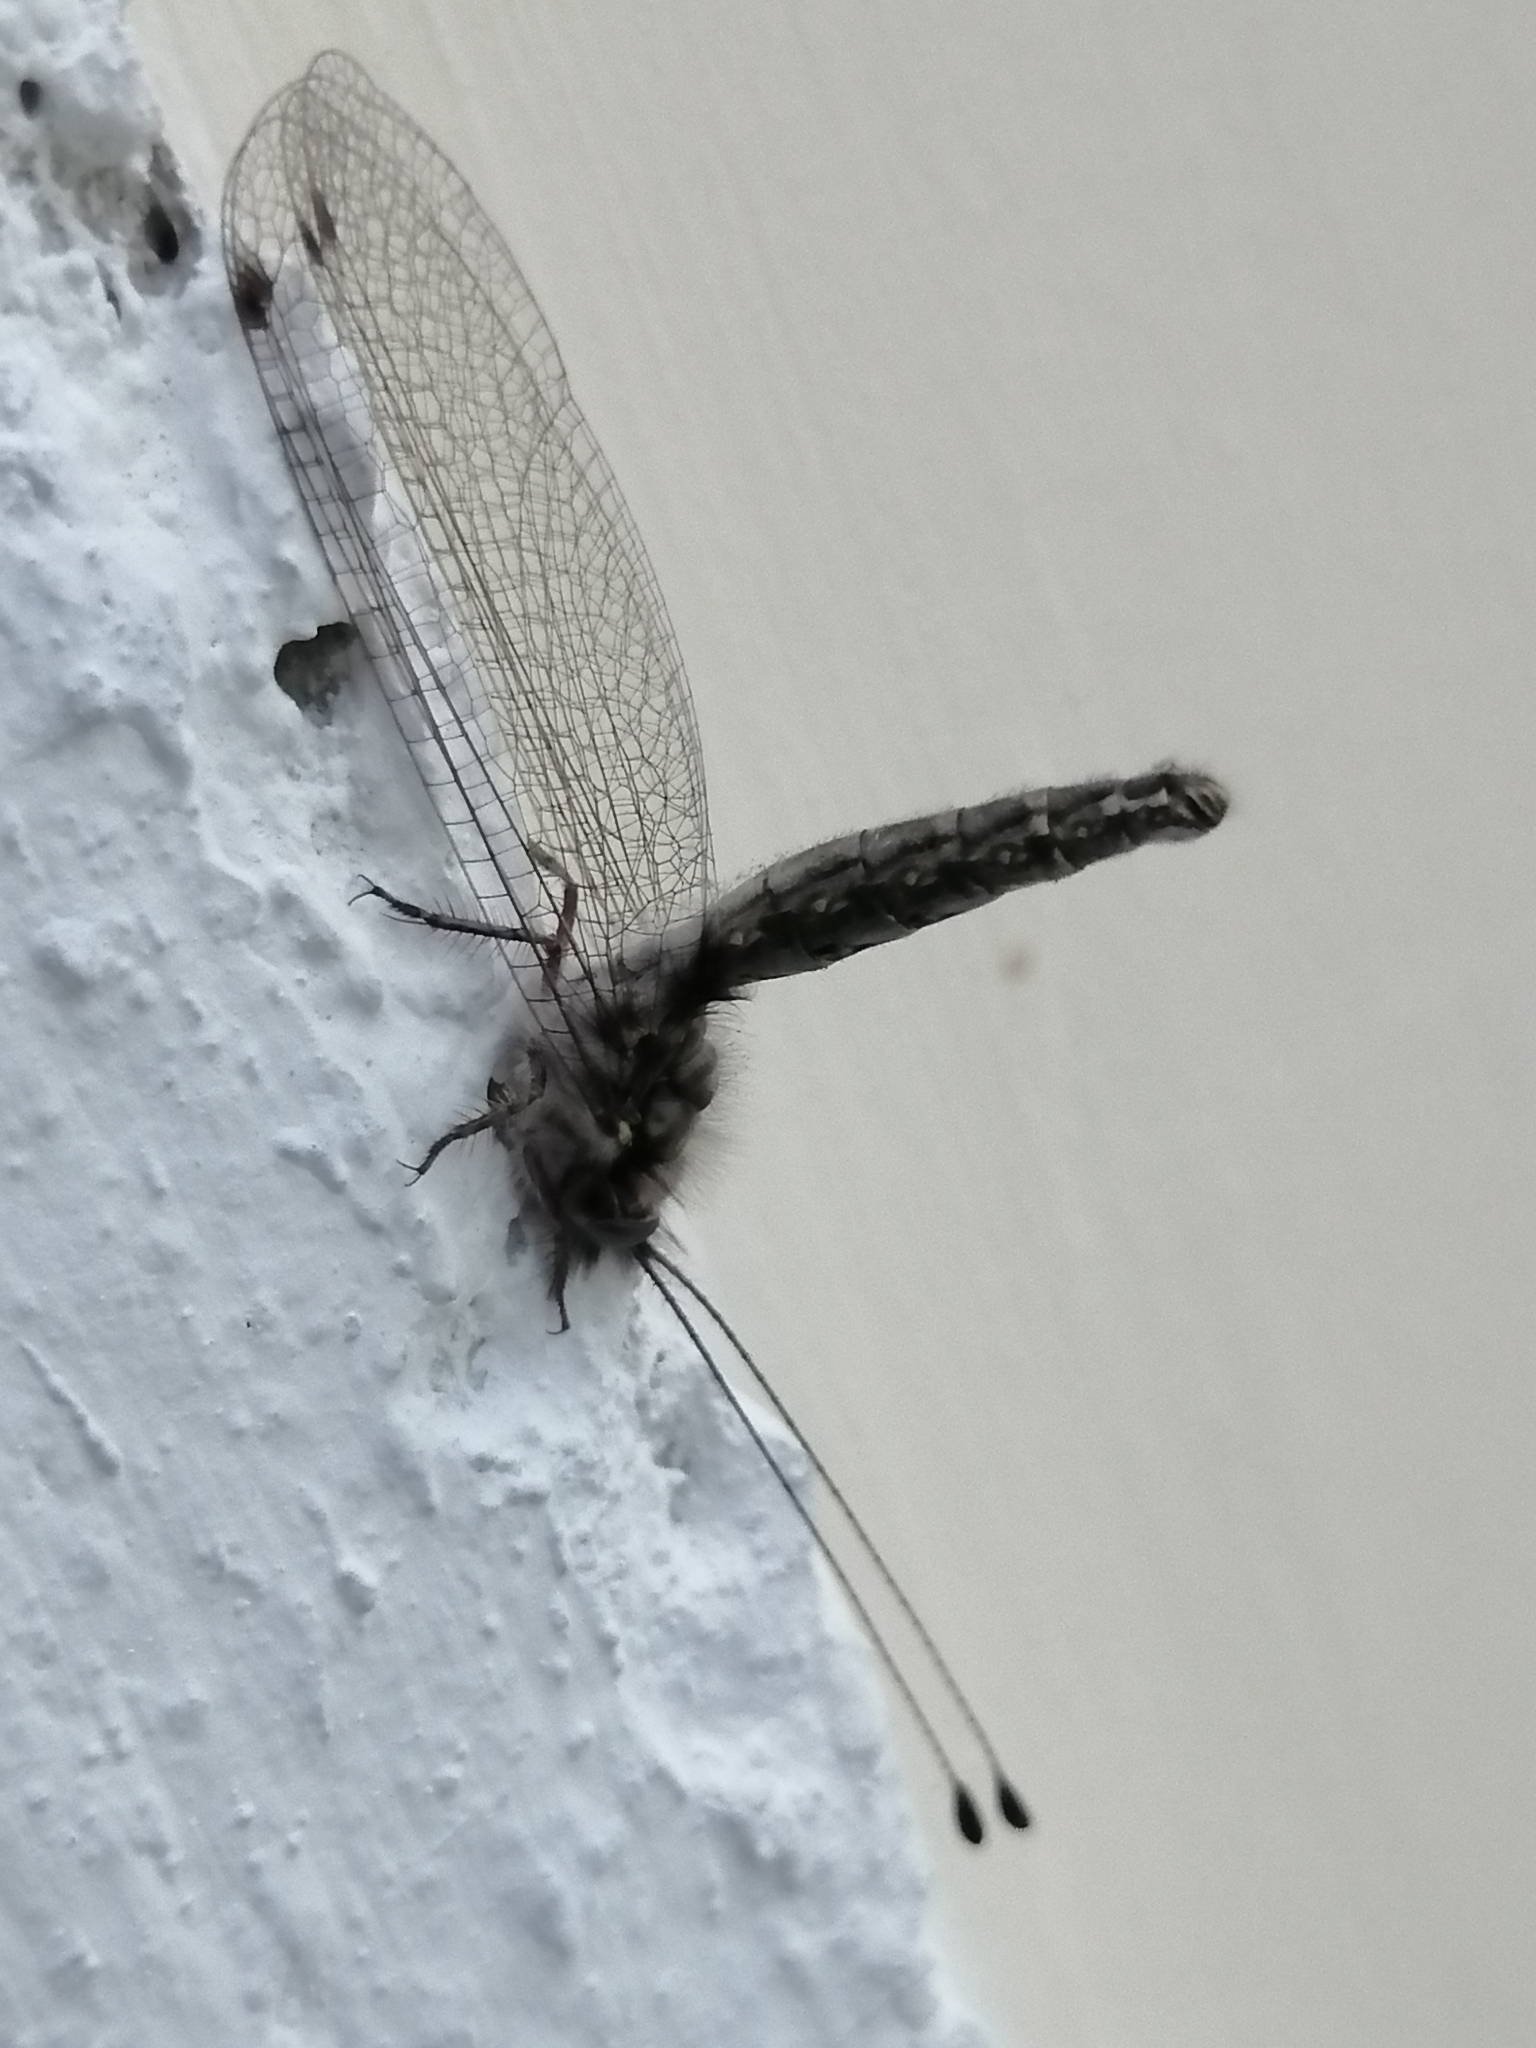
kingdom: Animalia
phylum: Arthropoda
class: Insecta
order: Neuroptera
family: Ascalaphidae
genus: Ululodes
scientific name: Ululodes macleayanus
